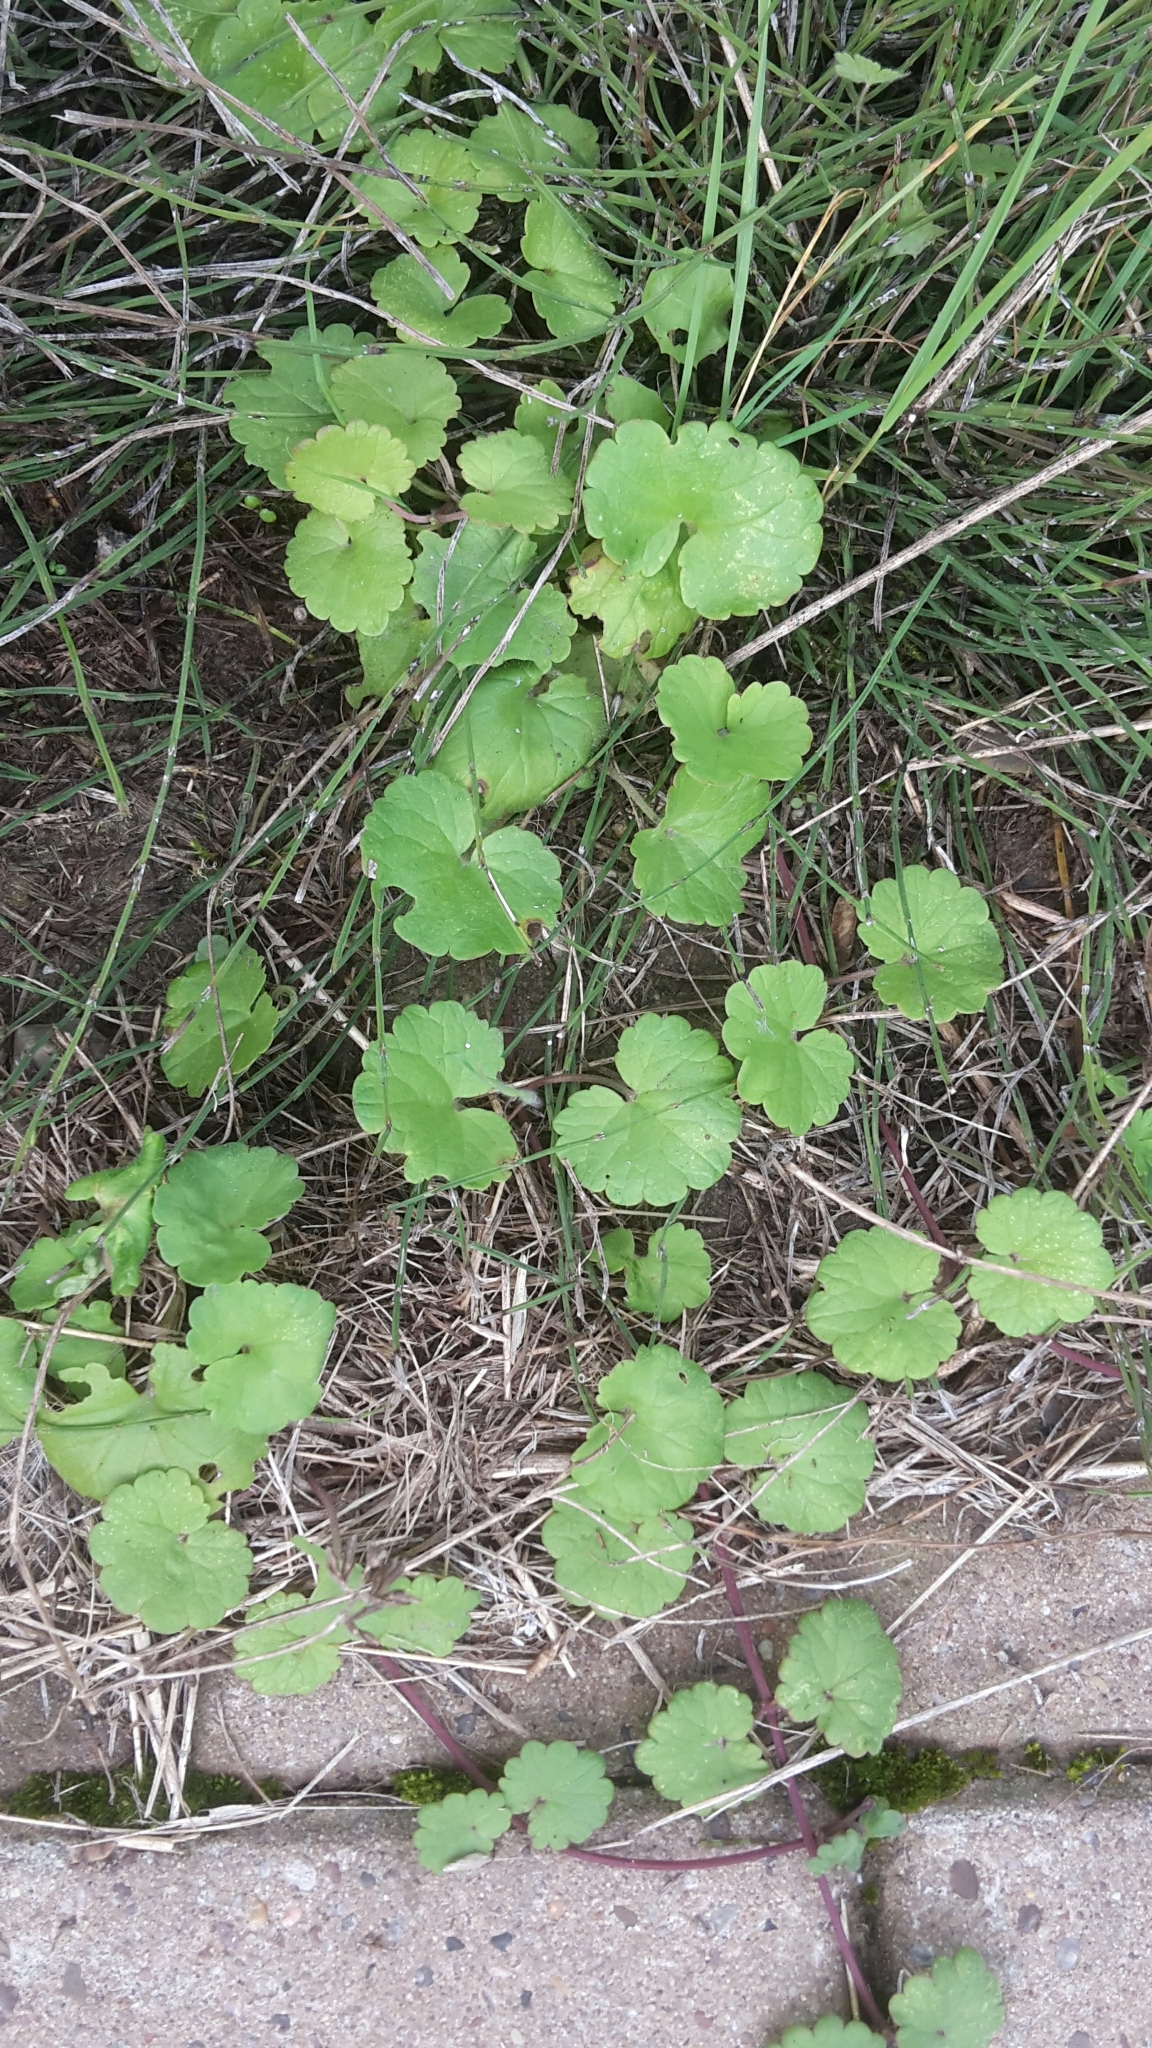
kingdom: Plantae
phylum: Tracheophyta
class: Magnoliopsida
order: Lamiales
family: Lamiaceae
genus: Glechoma
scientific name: Glechoma hederacea
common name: Ground ivy
